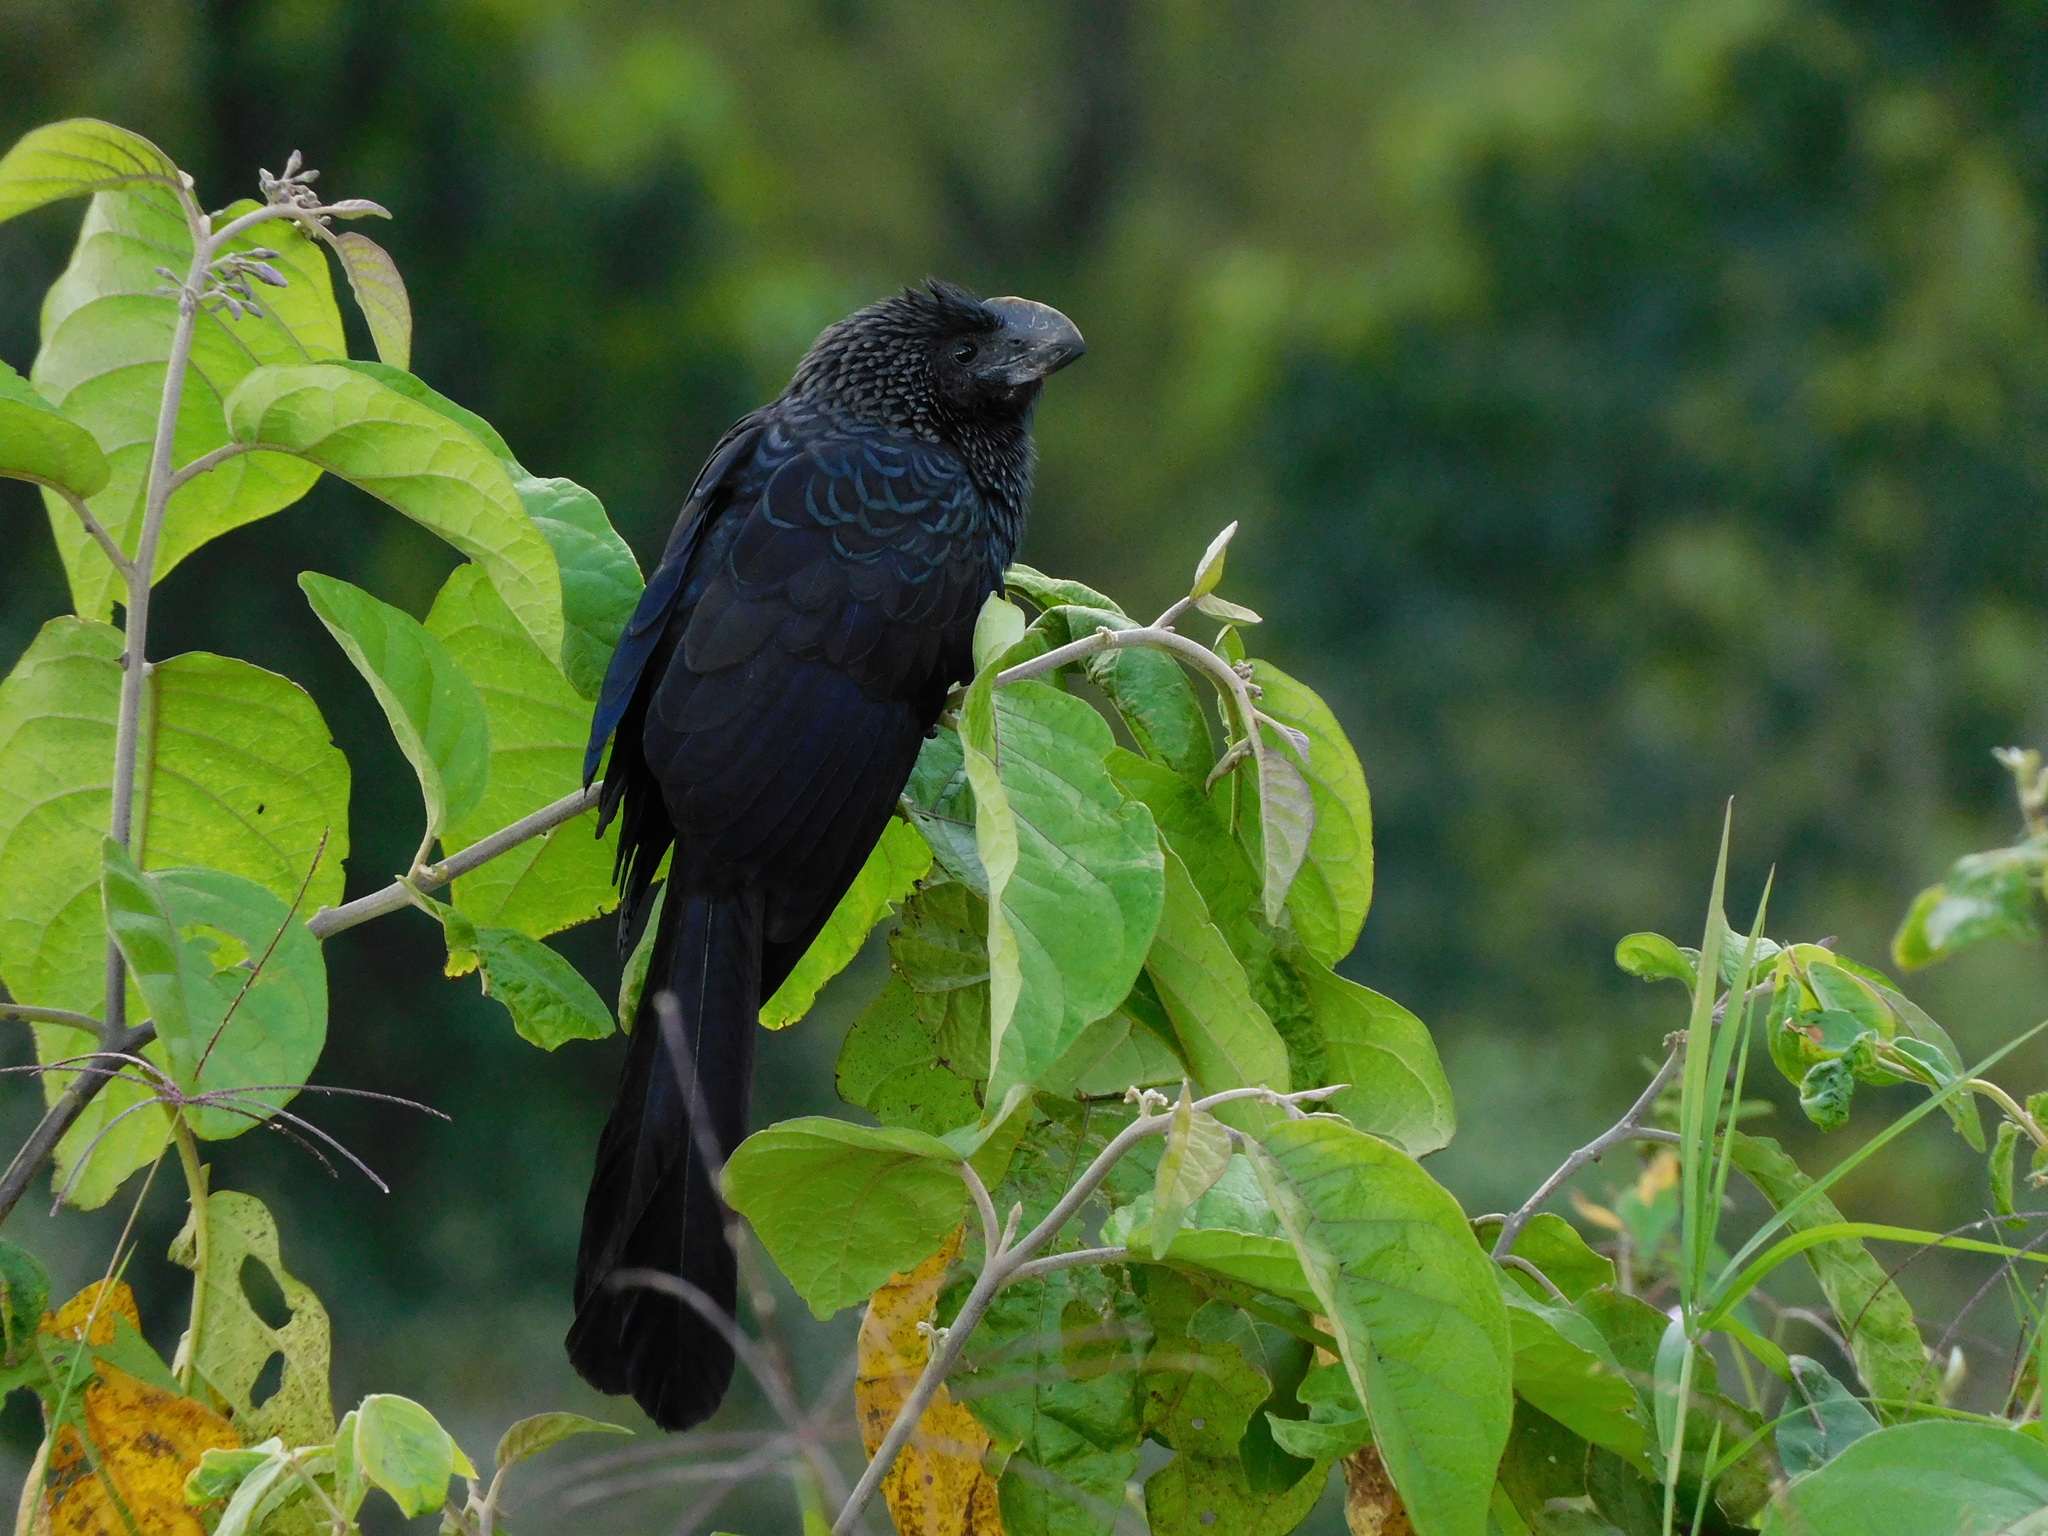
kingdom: Animalia
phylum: Chordata
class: Aves
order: Cuculiformes
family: Cuculidae
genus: Crotophaga
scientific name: Crotophaga ani
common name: Smooth-billed ani
